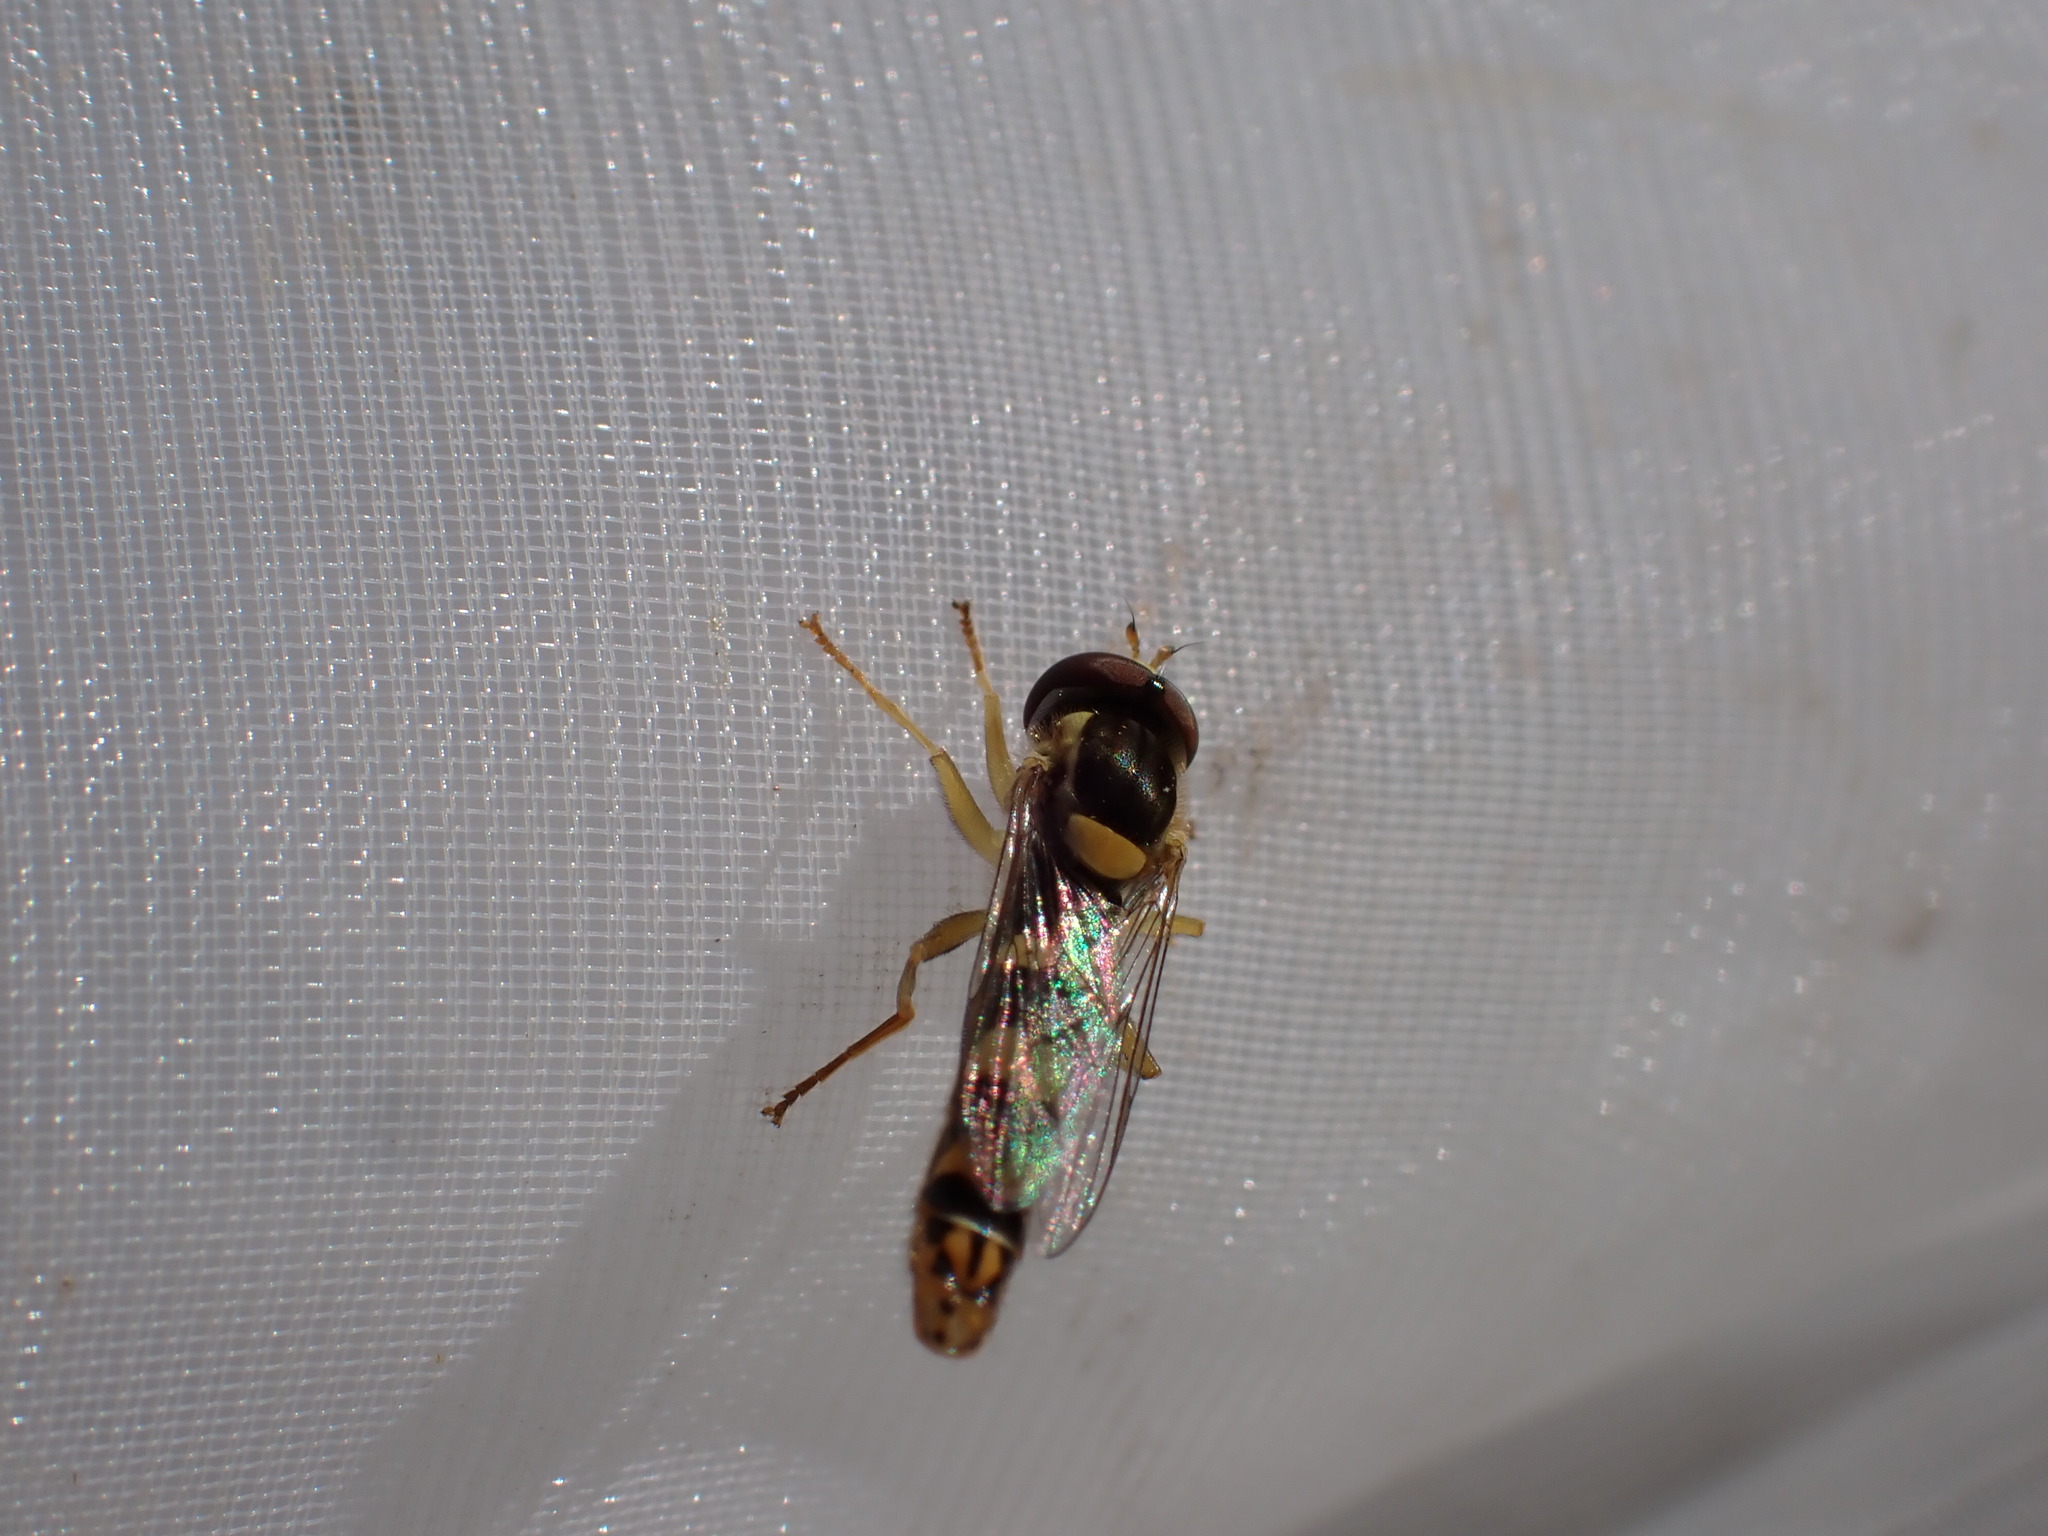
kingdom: Animalia
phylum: Arthropoda
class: Insecta
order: Diptera
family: Syrphidae
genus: Sphaerophoria
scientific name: Sphaerophoria scripta
